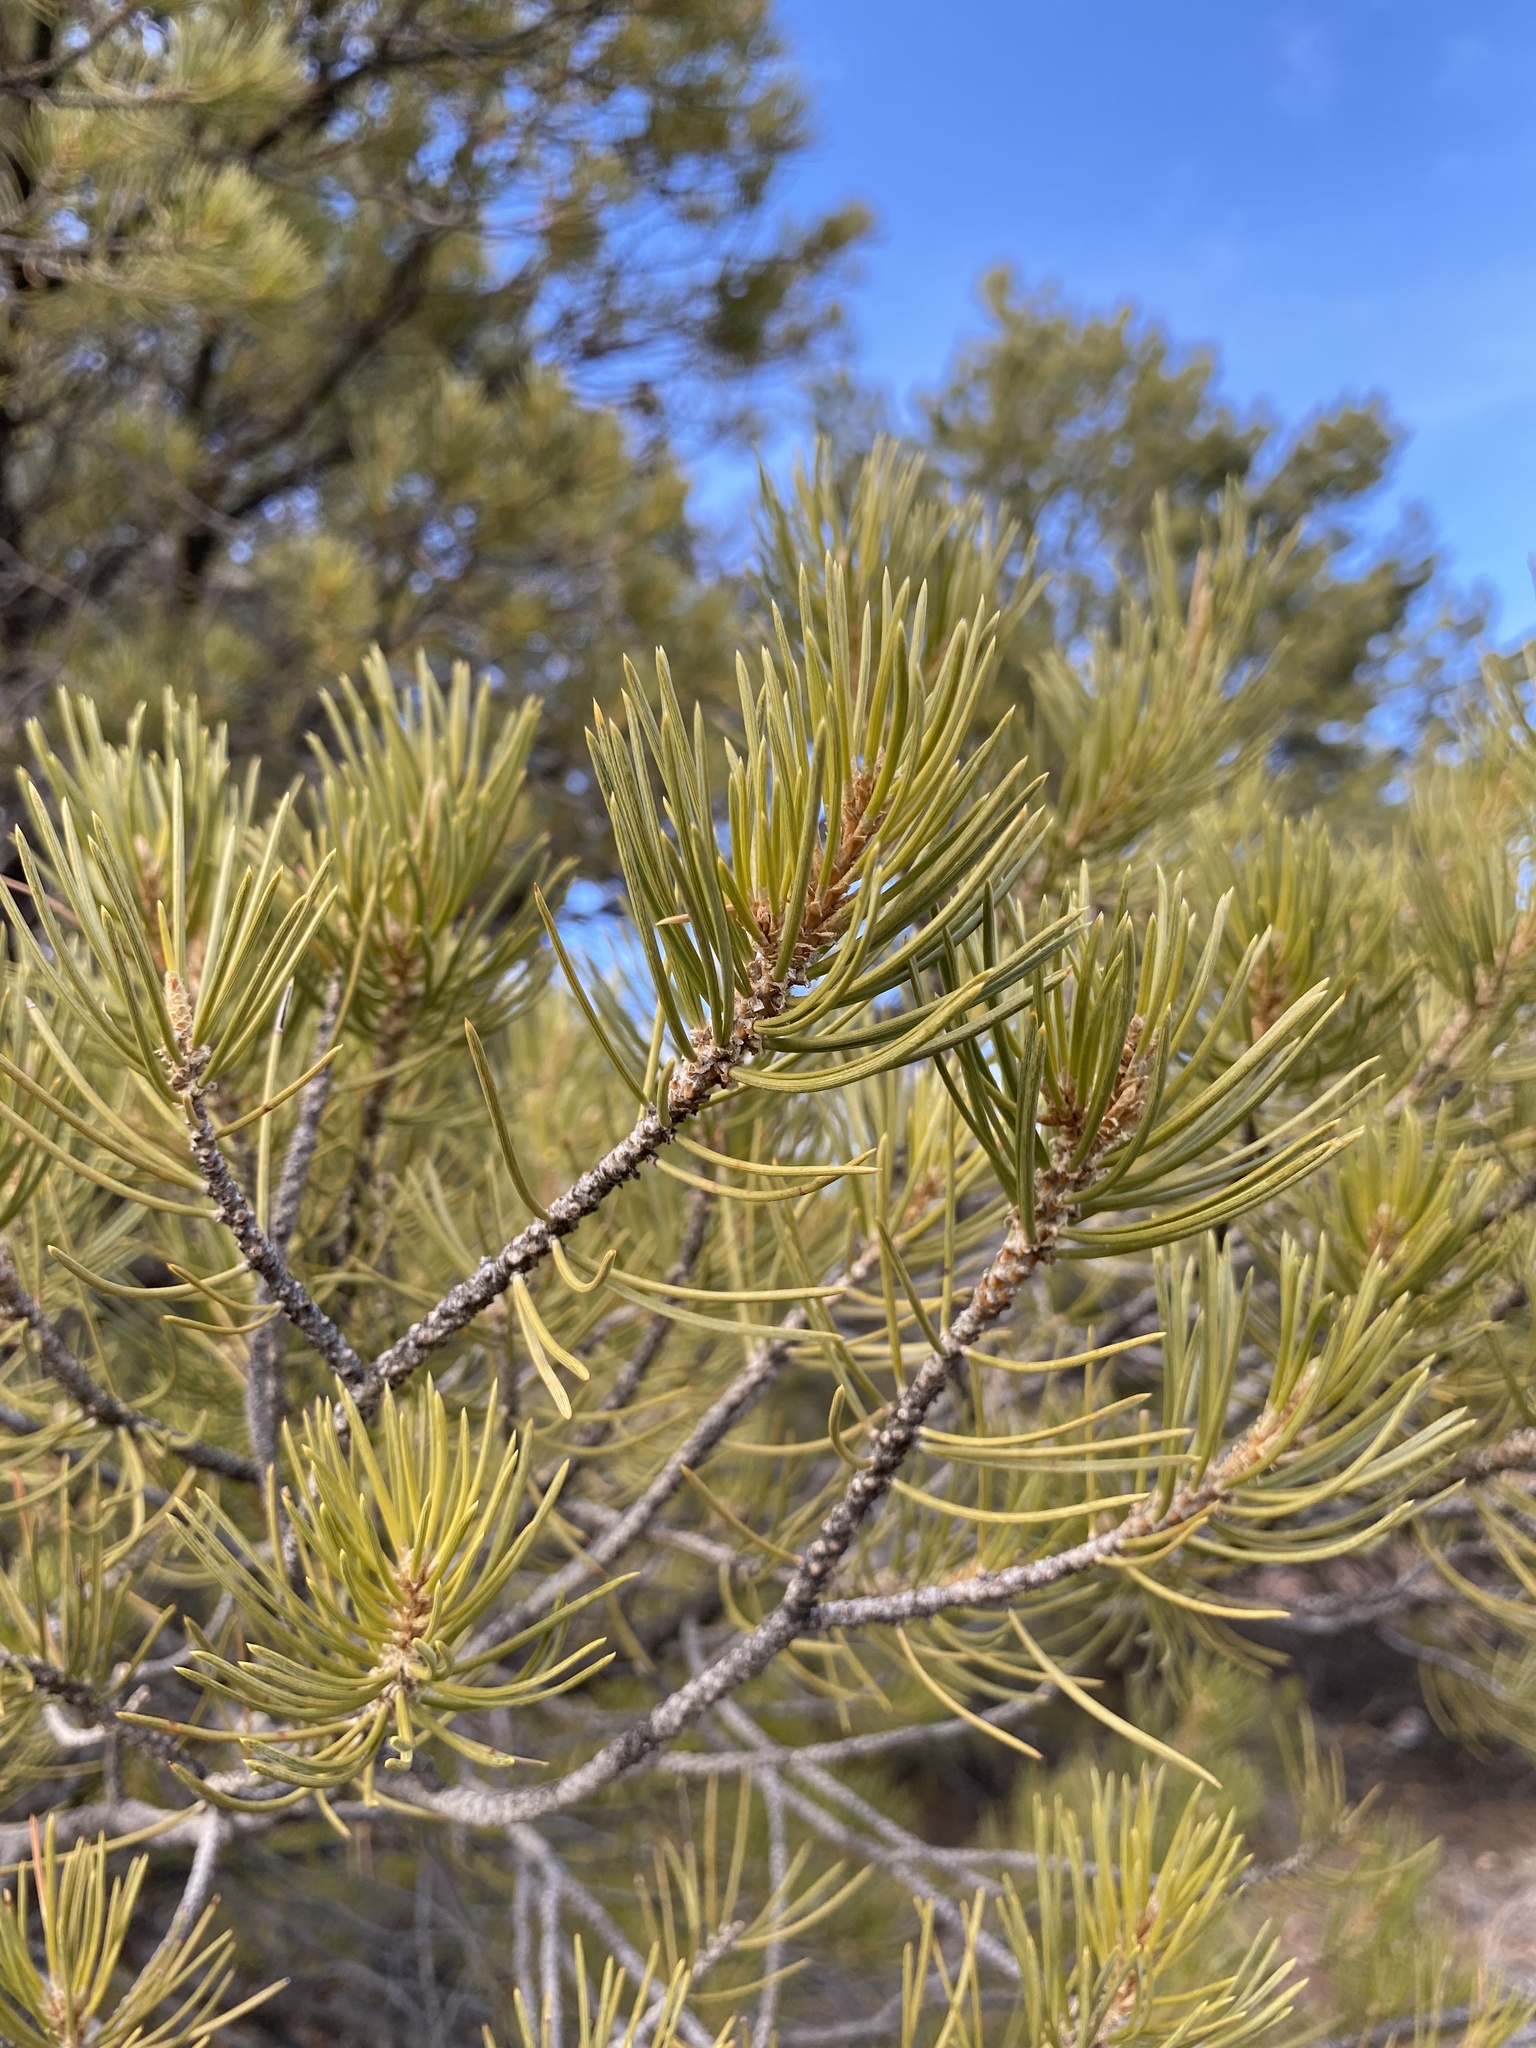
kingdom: Plantae
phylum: Tracheophyta
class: Pinopsida
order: Pinales
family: Pinaceae
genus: Pinus
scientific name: Pinus edulis
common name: Colorado pinyon
